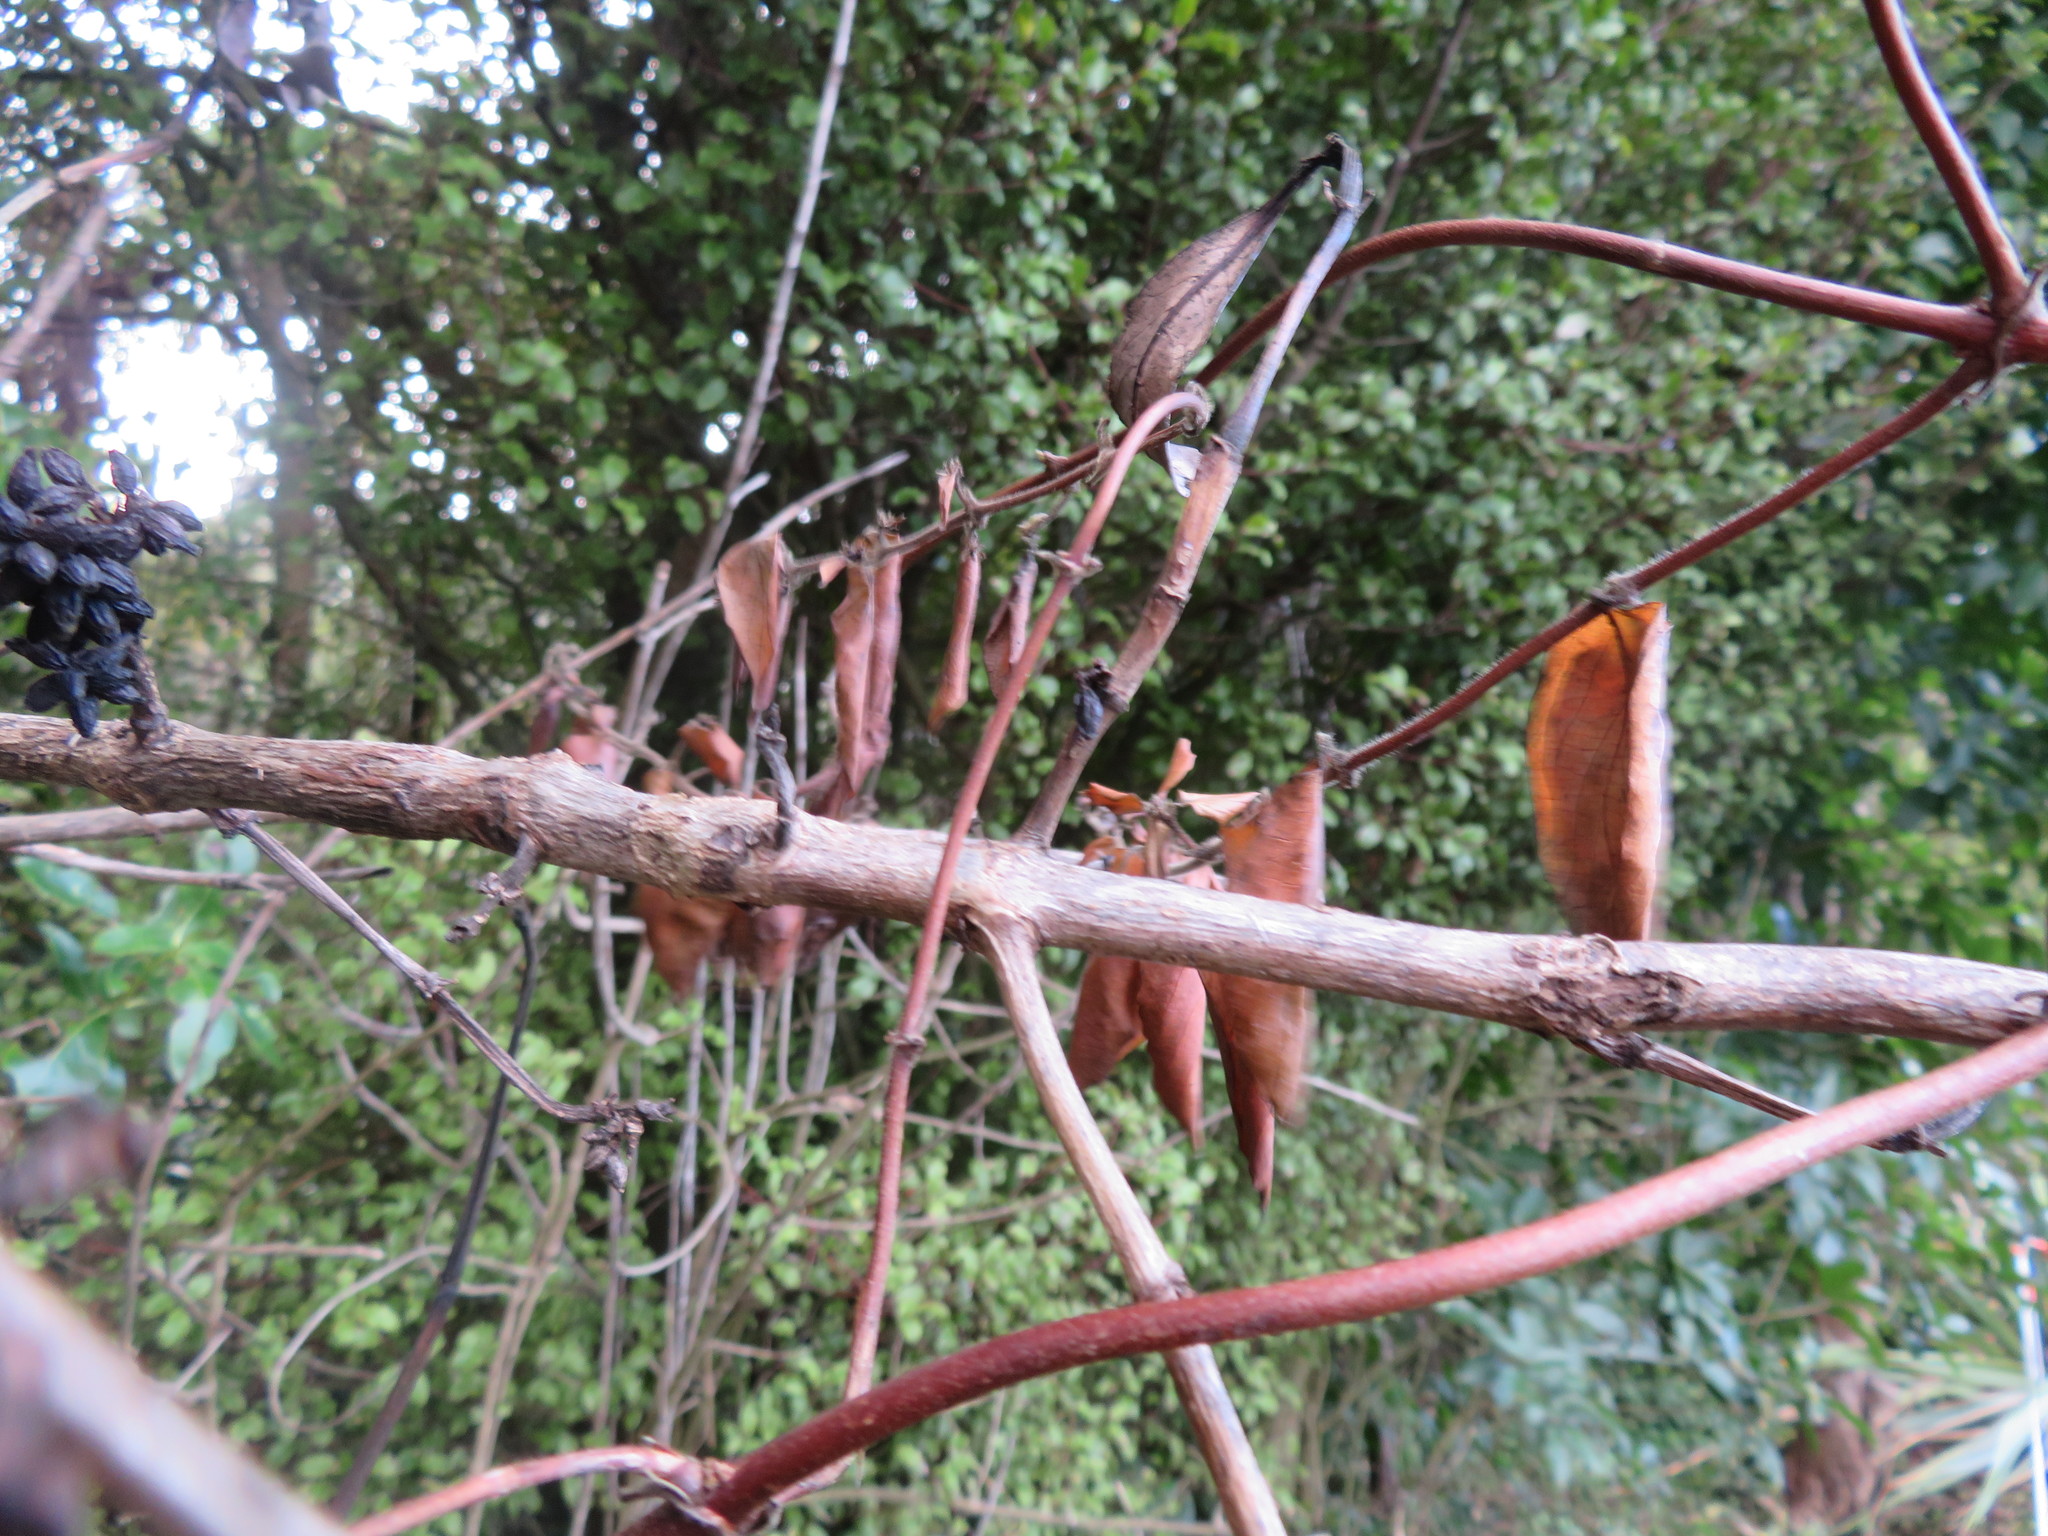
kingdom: Plantae
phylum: Tracheophyta
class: Magnoliopsida
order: Dipsacales
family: Caprifoliaceae
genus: Lonicera
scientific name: Lonicera japonica
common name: Japanese honeysuckle
